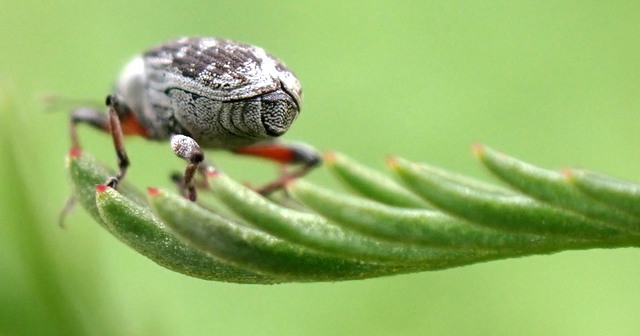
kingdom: Animalia
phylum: Arthropoda
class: Insecta
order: Coleoptera
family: Curculionidae
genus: Phytobius
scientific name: Phytobius
